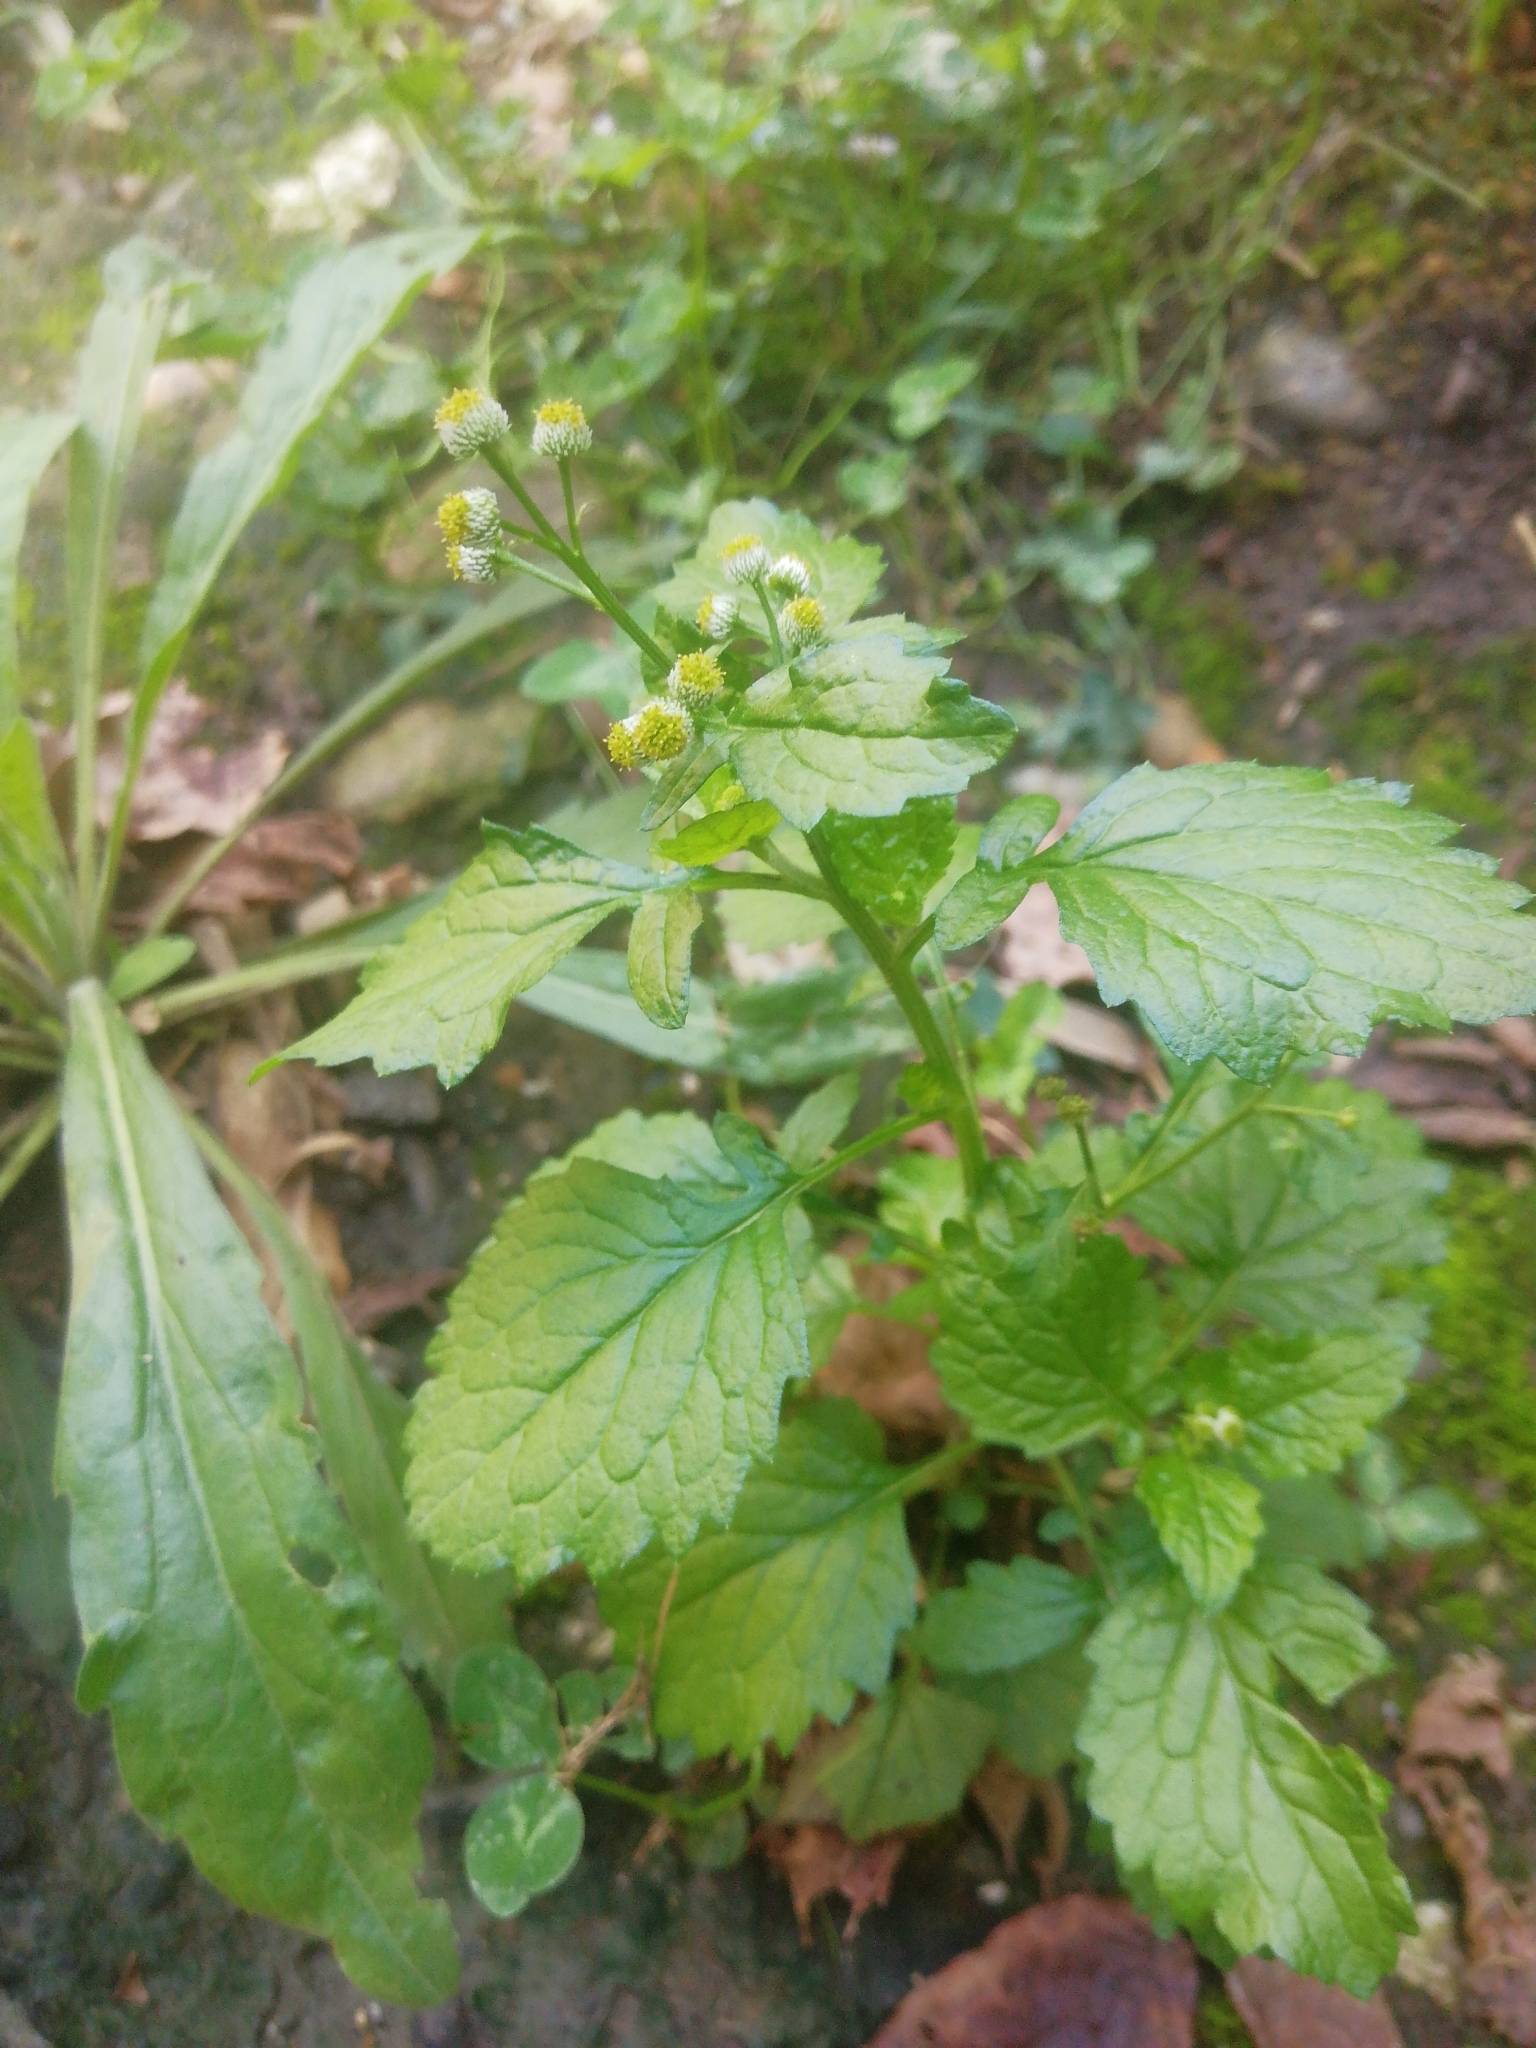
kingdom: Plantae
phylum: Tracheophyta
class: Magnoliopsida
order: Asterales
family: Asteraceae
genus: Dichrocephala
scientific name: Dichrocephala integrifolia
